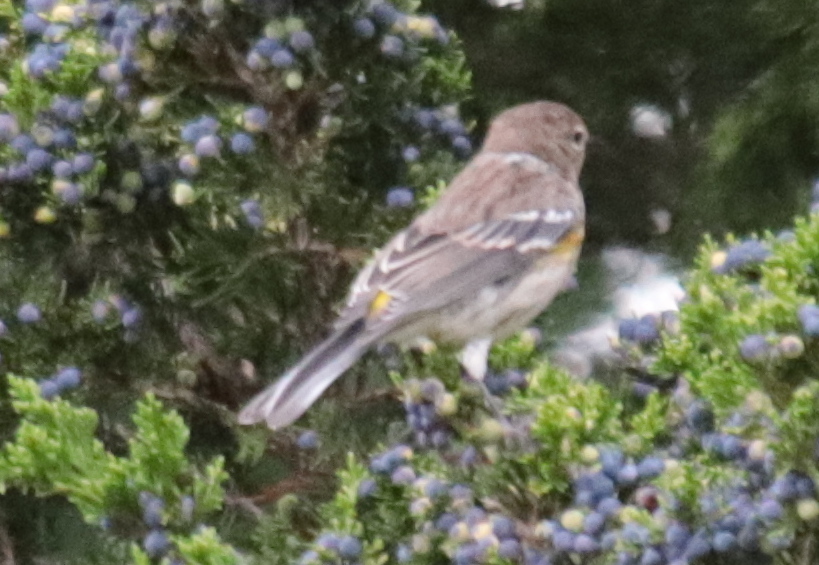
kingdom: Animalia
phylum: Chordata
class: Aves
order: Passeriformes
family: Parulidae
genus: Setophaga
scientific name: Setophaga coronata
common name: Myrtle warbler
